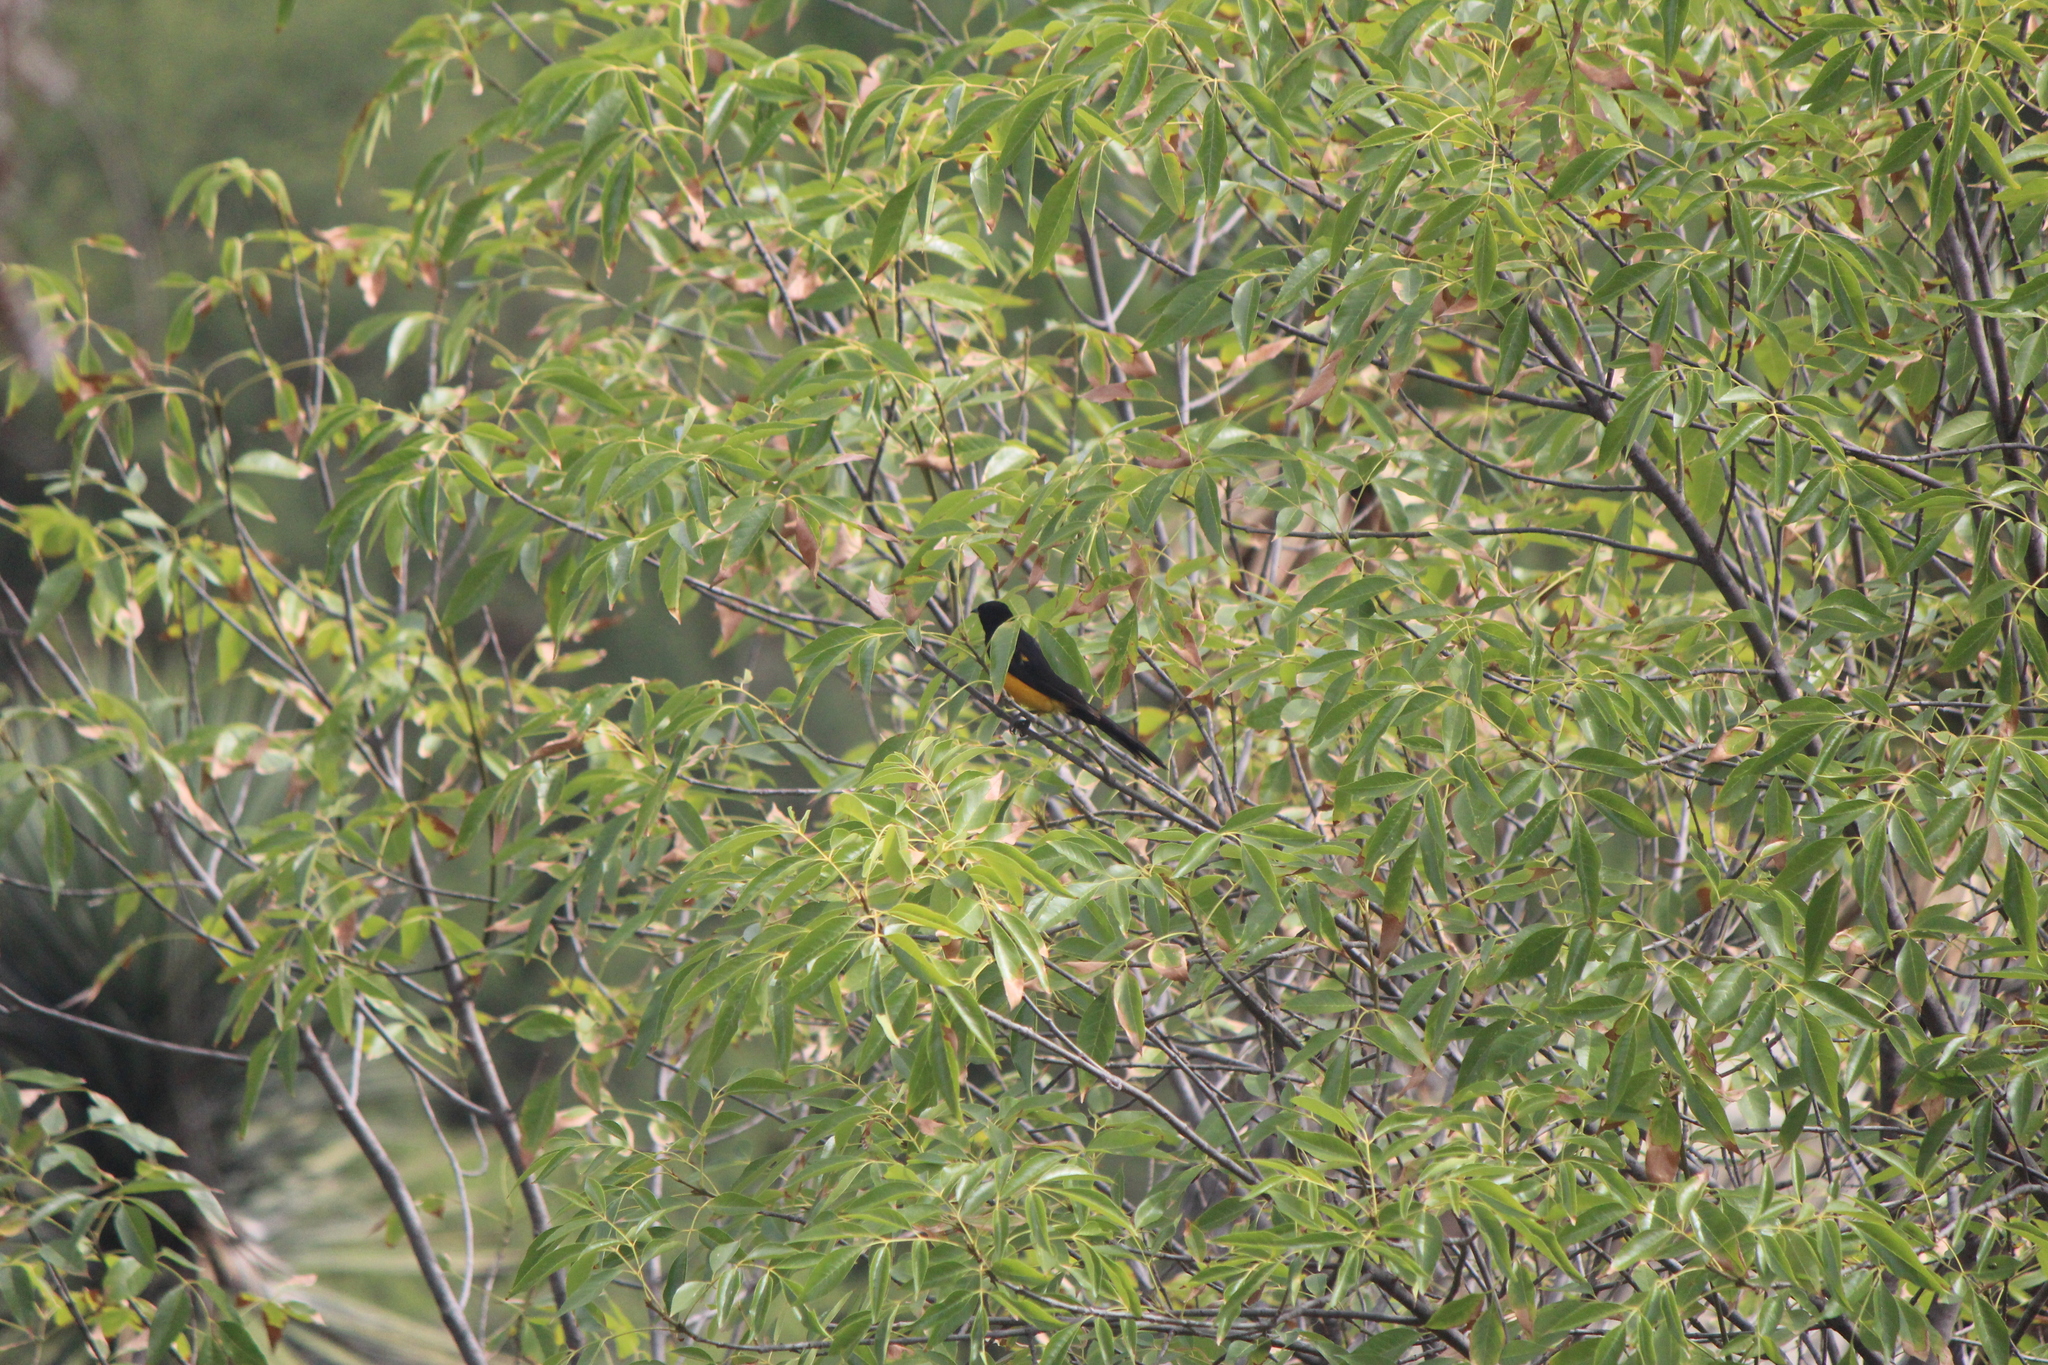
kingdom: Animalia
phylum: Chordata
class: Aves
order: Passeriformes
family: Icteridae
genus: Icterus
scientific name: Icterus wagleri
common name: Black-vented oriole
